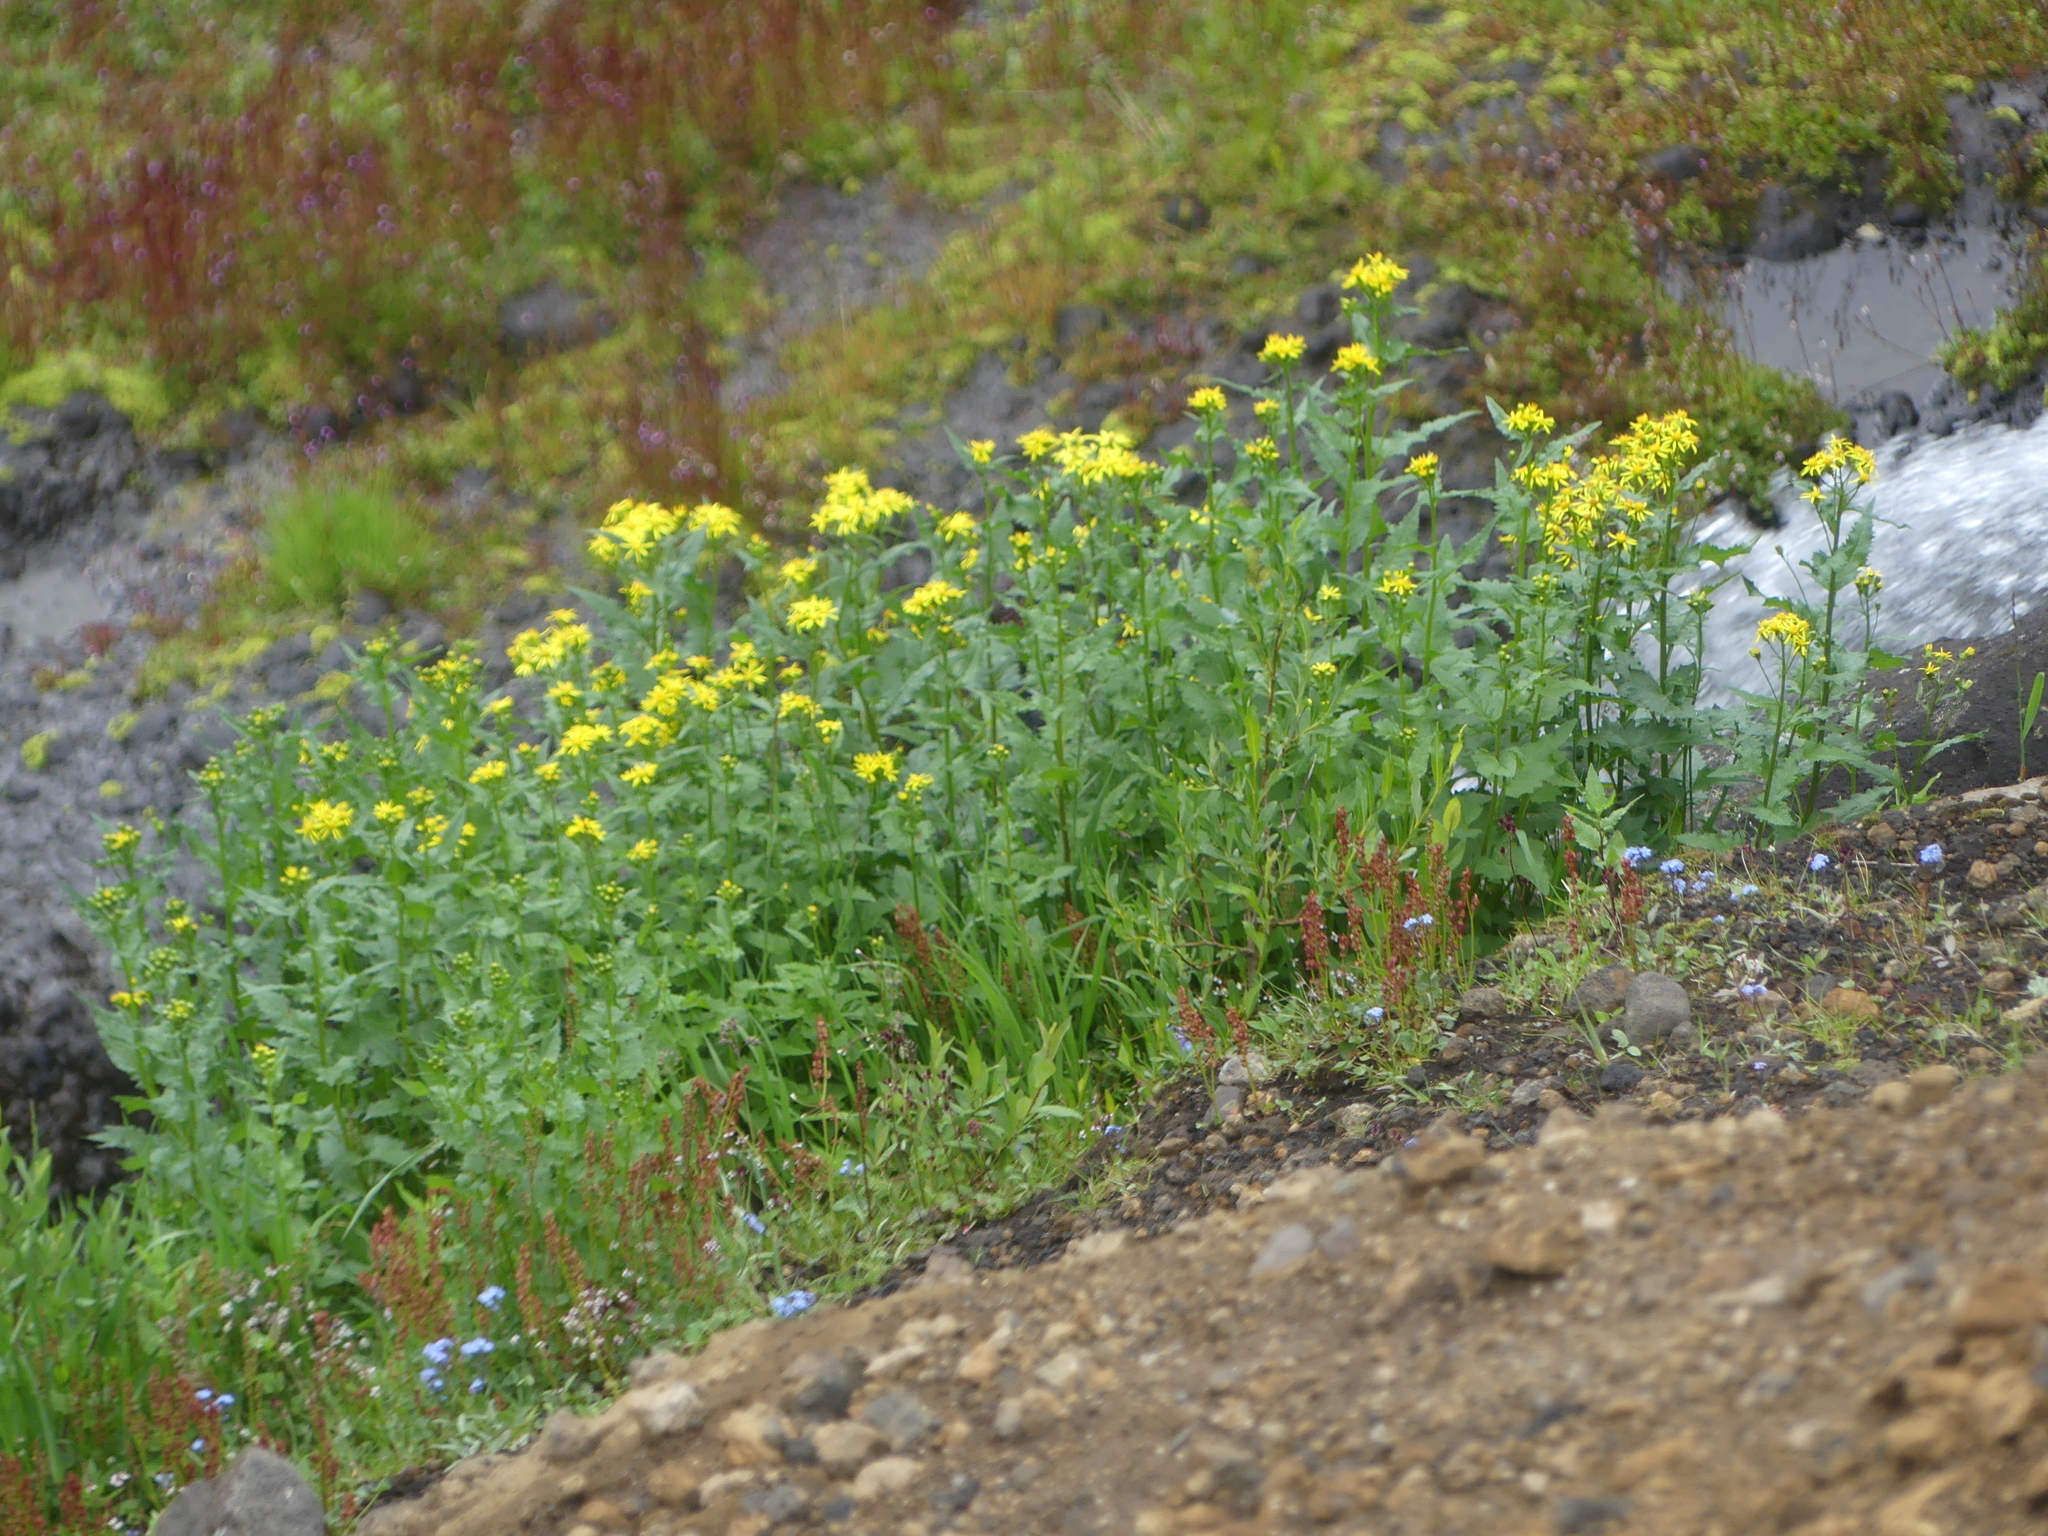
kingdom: Plantae
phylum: Tracheophyta
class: Magnoliopsida
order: Asterales
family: Asteraceae
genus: Senecio
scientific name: Senecio triangularis
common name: Arrowleaf butterweed
